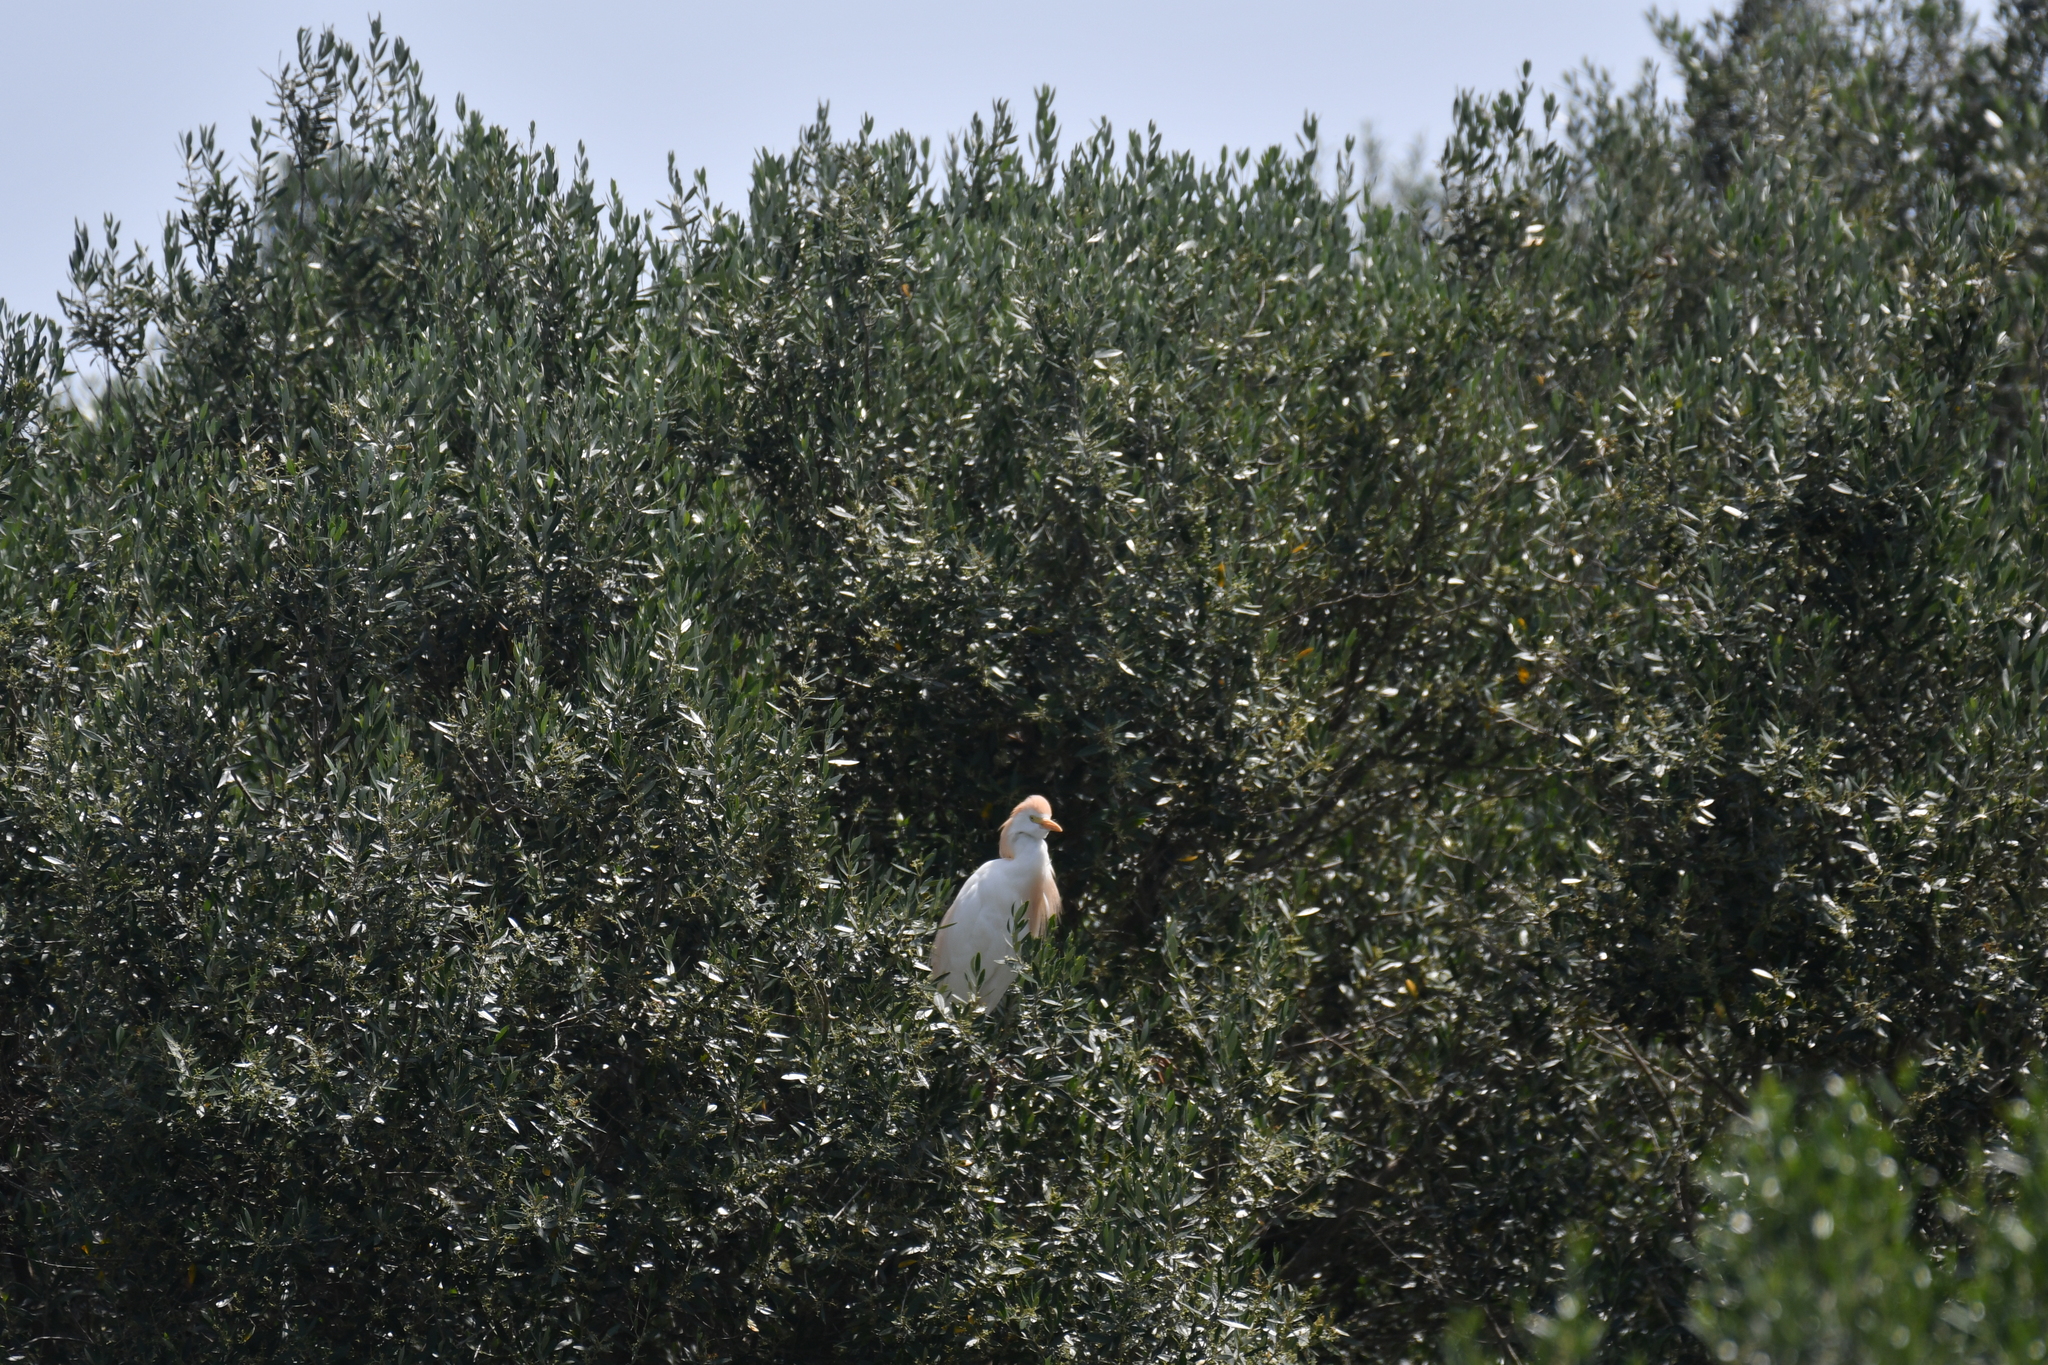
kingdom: Animalia
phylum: Chordata
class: Aves
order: Pelecaniformes
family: Ardeidae
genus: Bubulcus
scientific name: Bubulcus ibis
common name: Cattle egret
